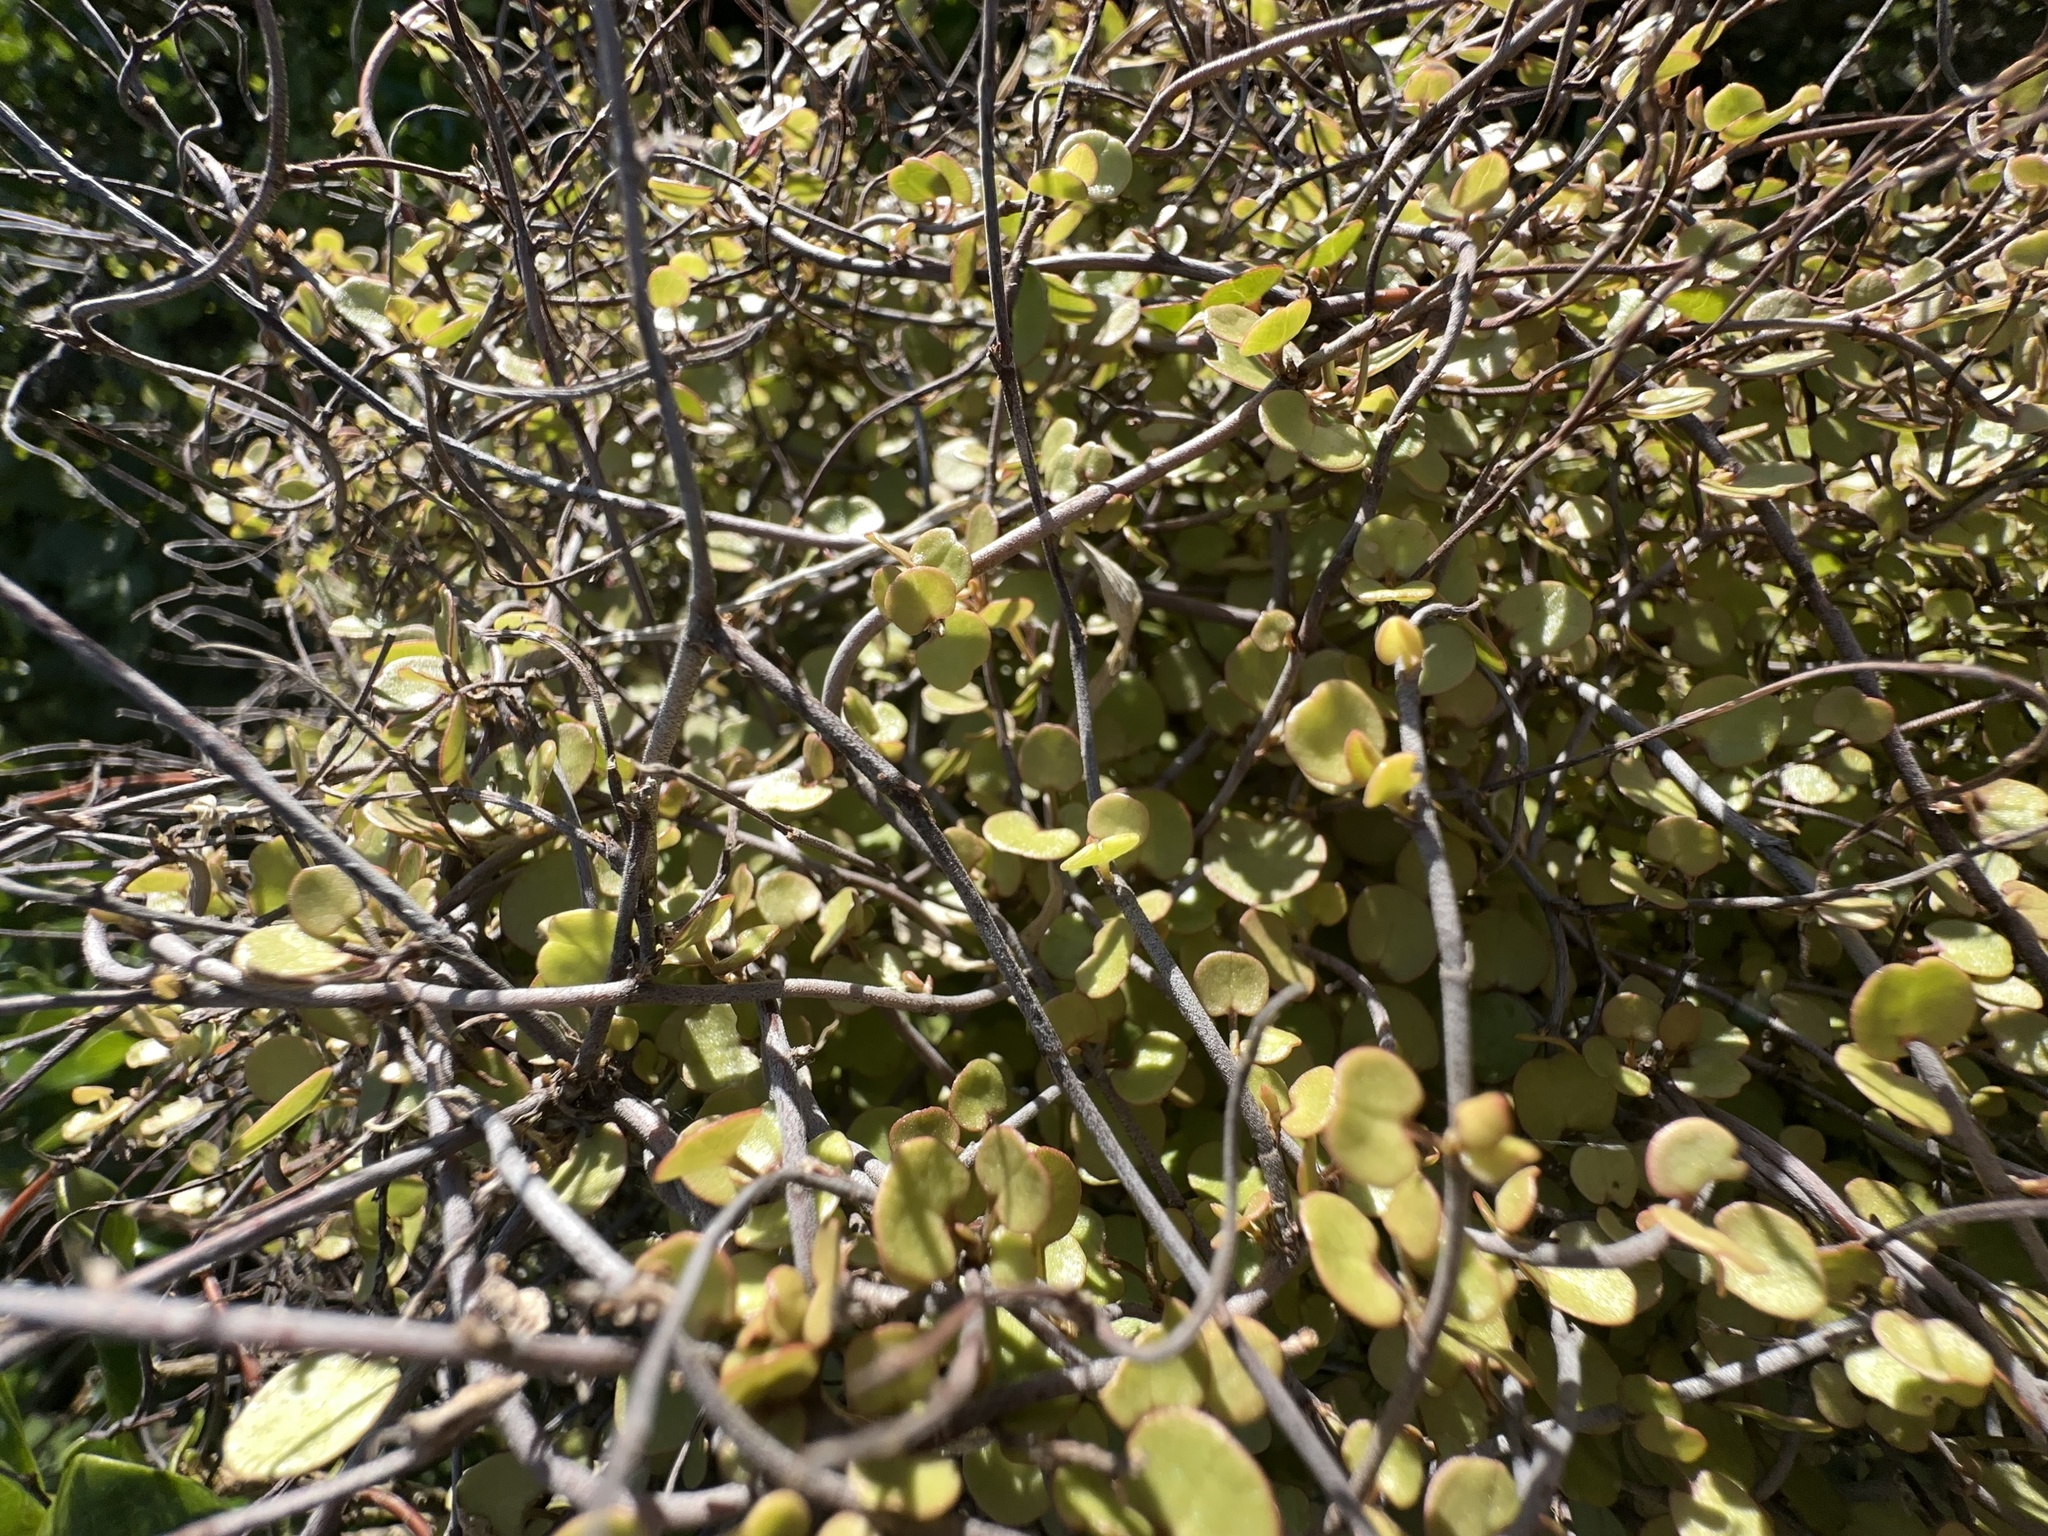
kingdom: Plantae
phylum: Tracheophyta
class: Magnoliopsida
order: Caryophyllales
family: Polygonaceae
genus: Muehlenbeckia
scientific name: Muehlenbeckia complexa
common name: Wireplant
